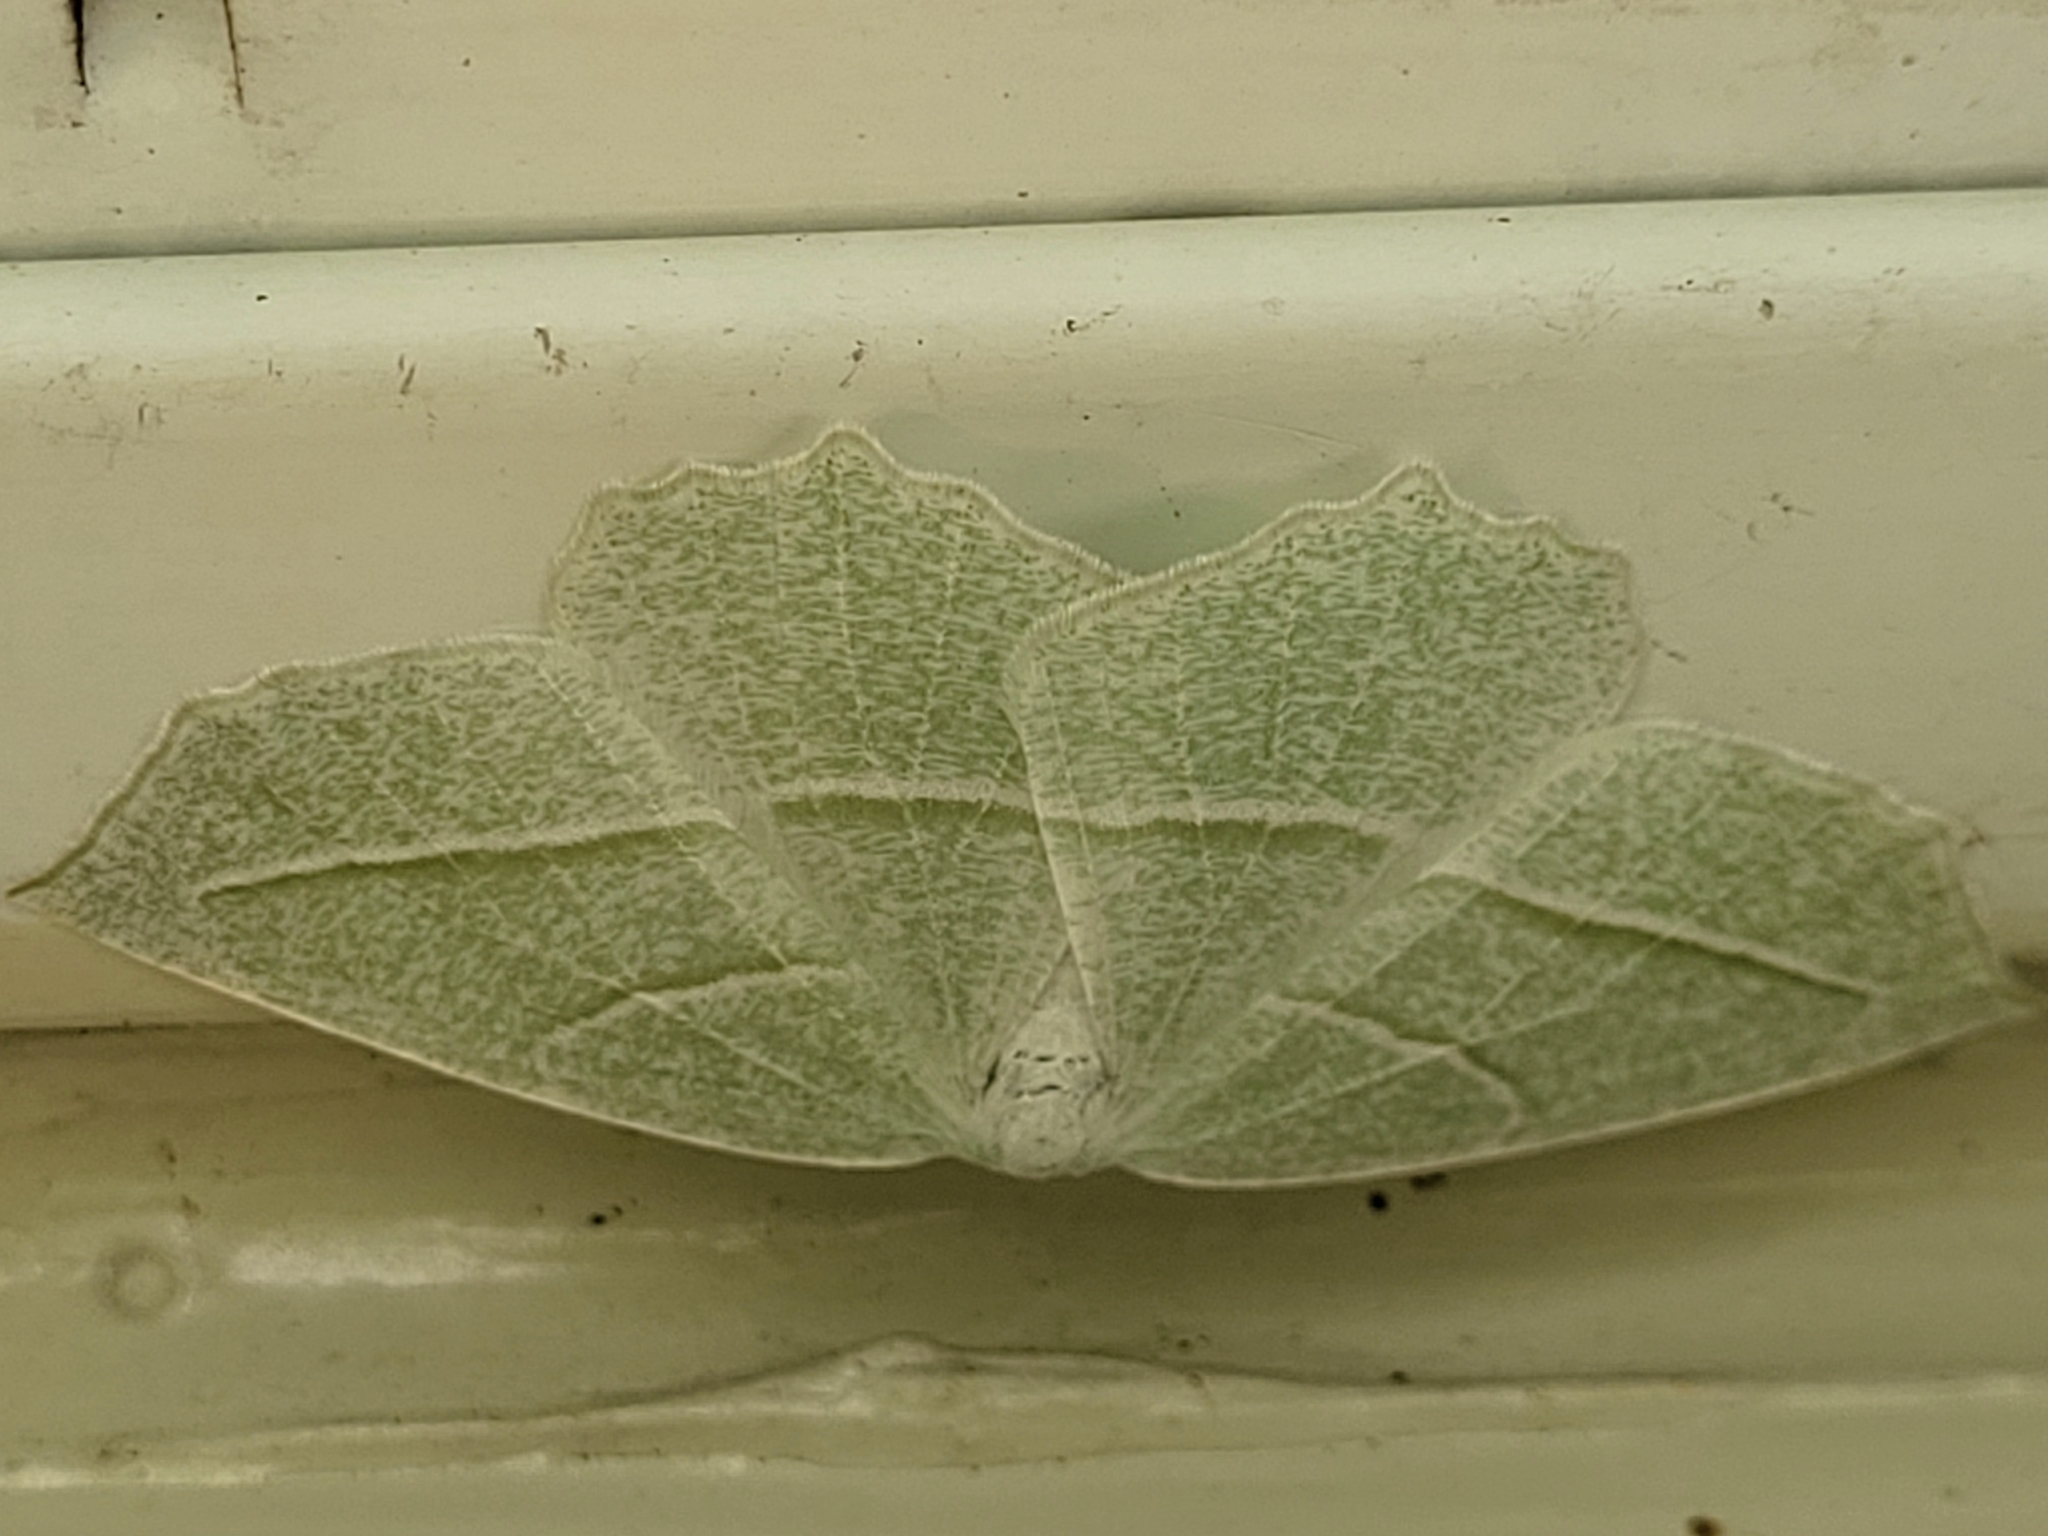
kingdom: Animalia
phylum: Arthropoda
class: Insecta
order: Lepidoptera
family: Geometridae
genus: Campaea
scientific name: Campaea perlata
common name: Fringed looper
